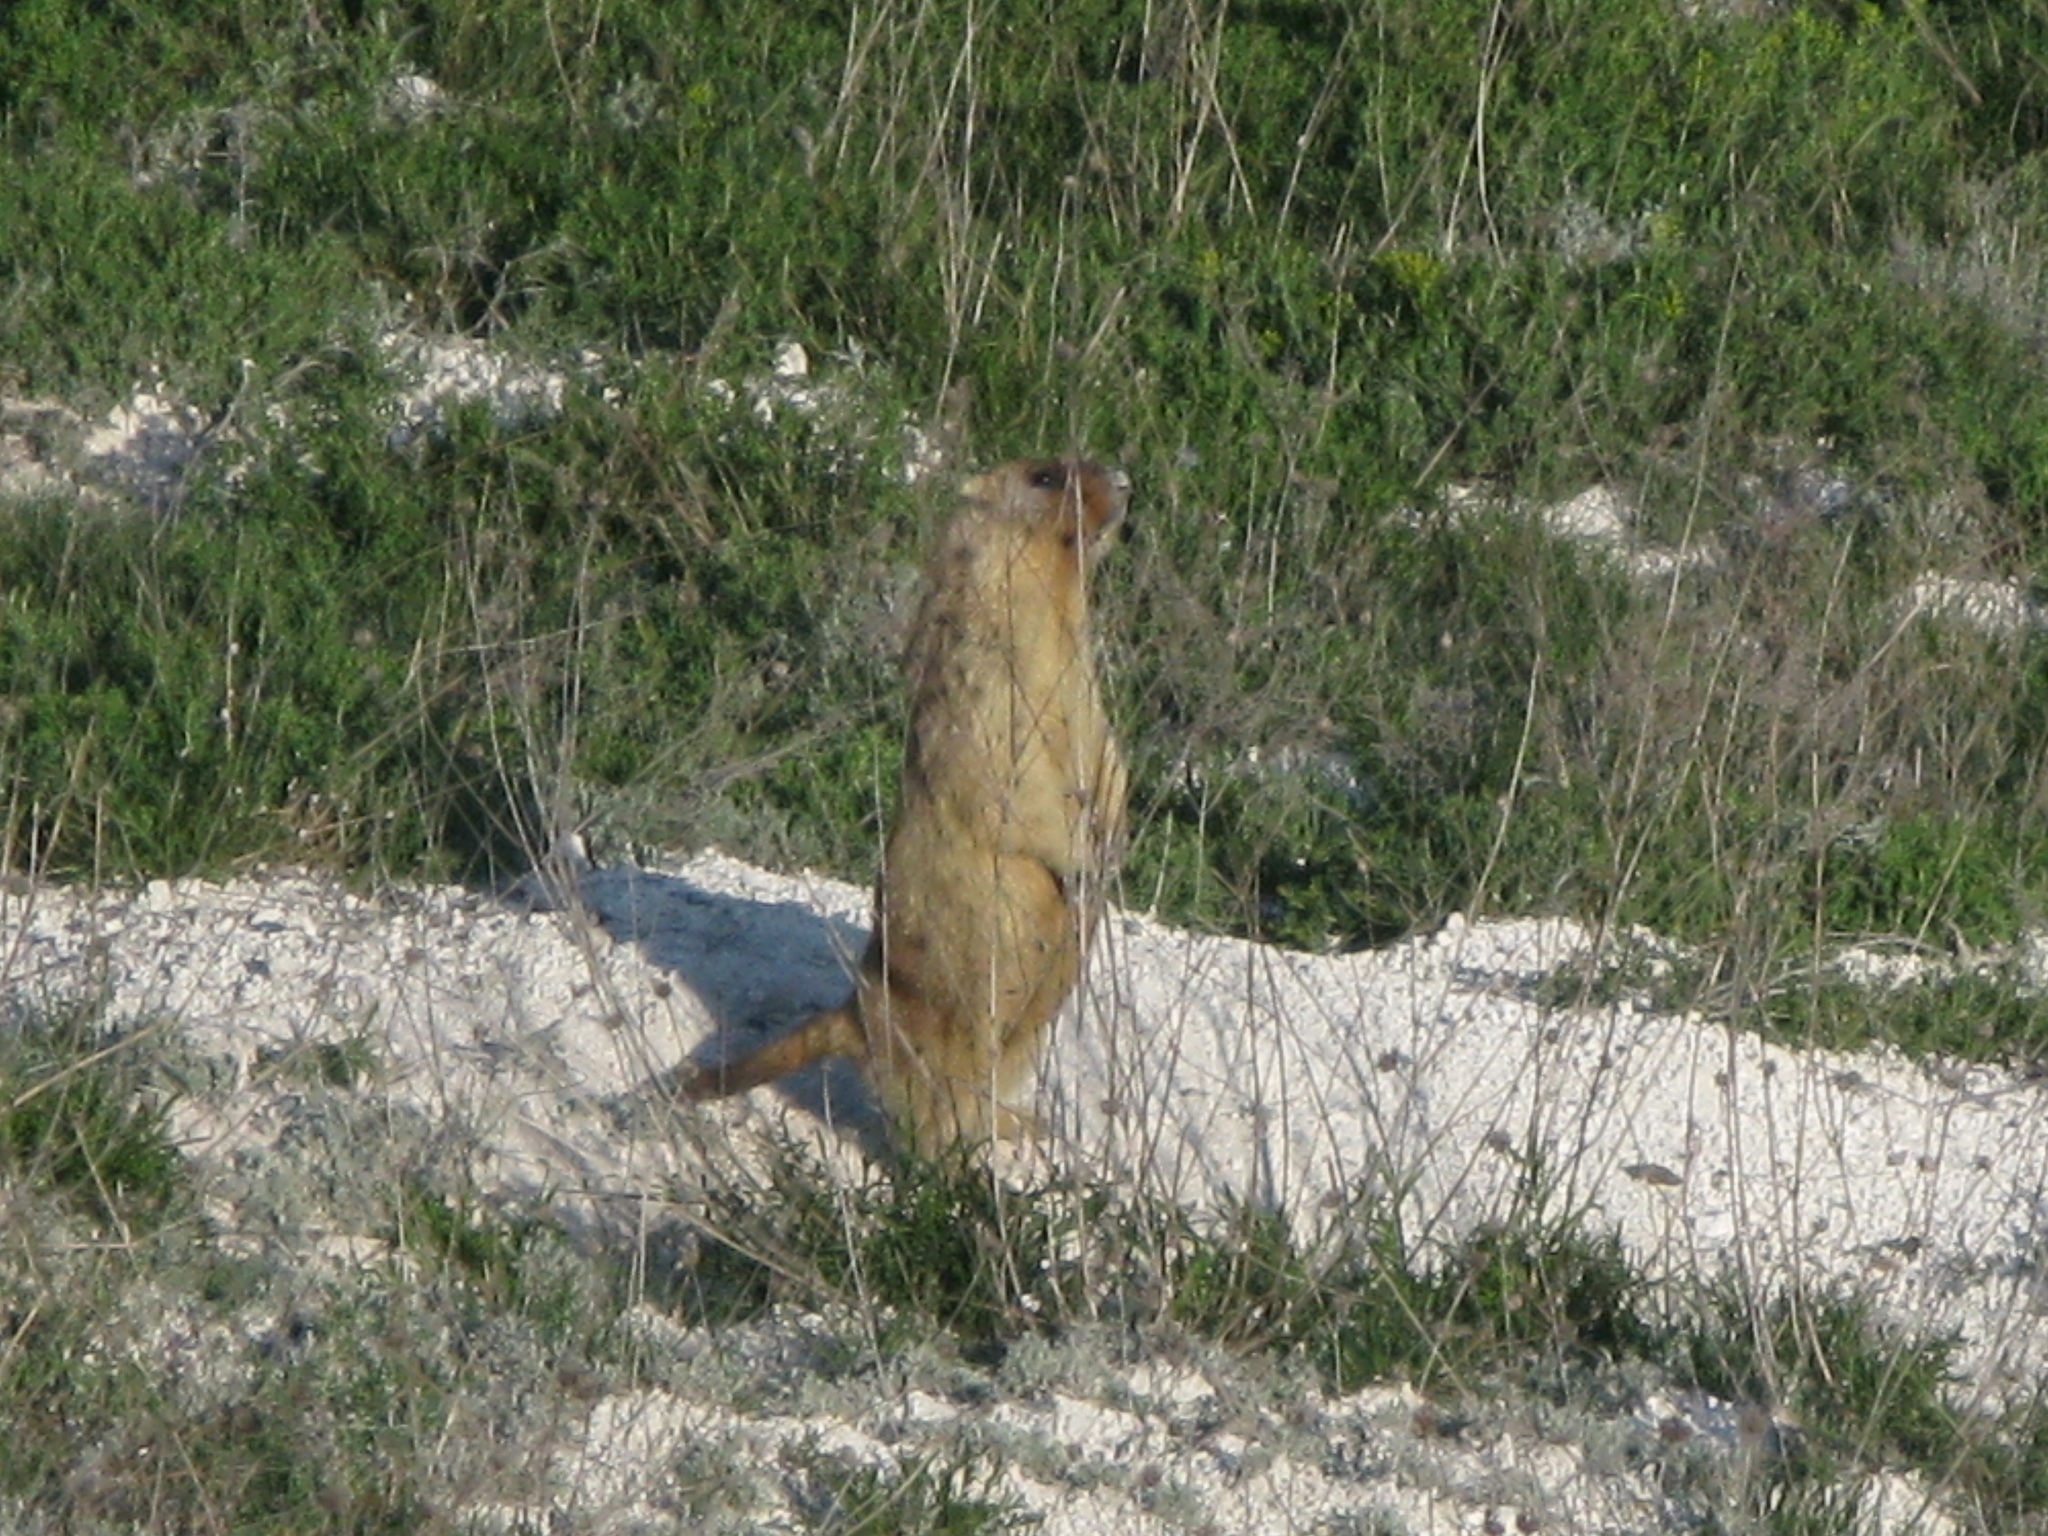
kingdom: Animalia
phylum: Chordata
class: Mammalia
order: Rodentia
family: Sciuridae
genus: Marmota
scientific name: Marmota bobak
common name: Bobak marmot
